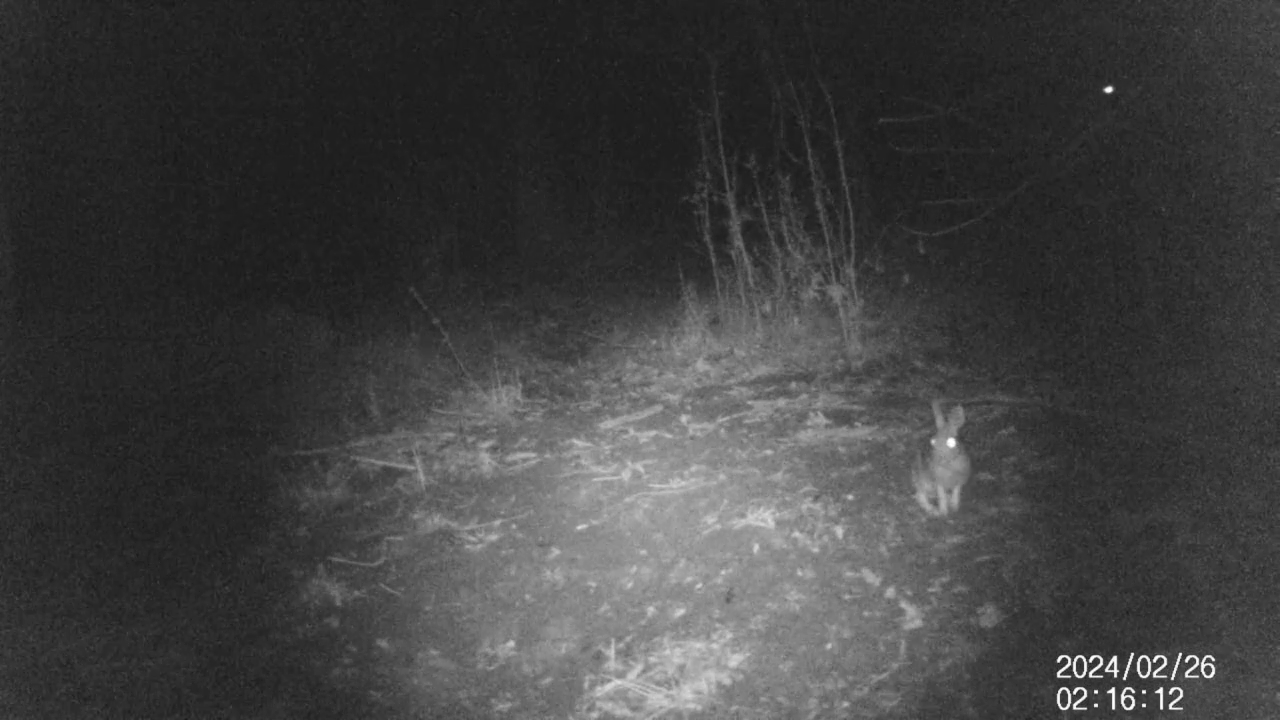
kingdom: Animalia
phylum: Chordata
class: Mammalia
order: Lagomorpha
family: Leporidae
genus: Sylvilagus
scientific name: Sylvilagus floridanus
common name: Eastern cottontail
